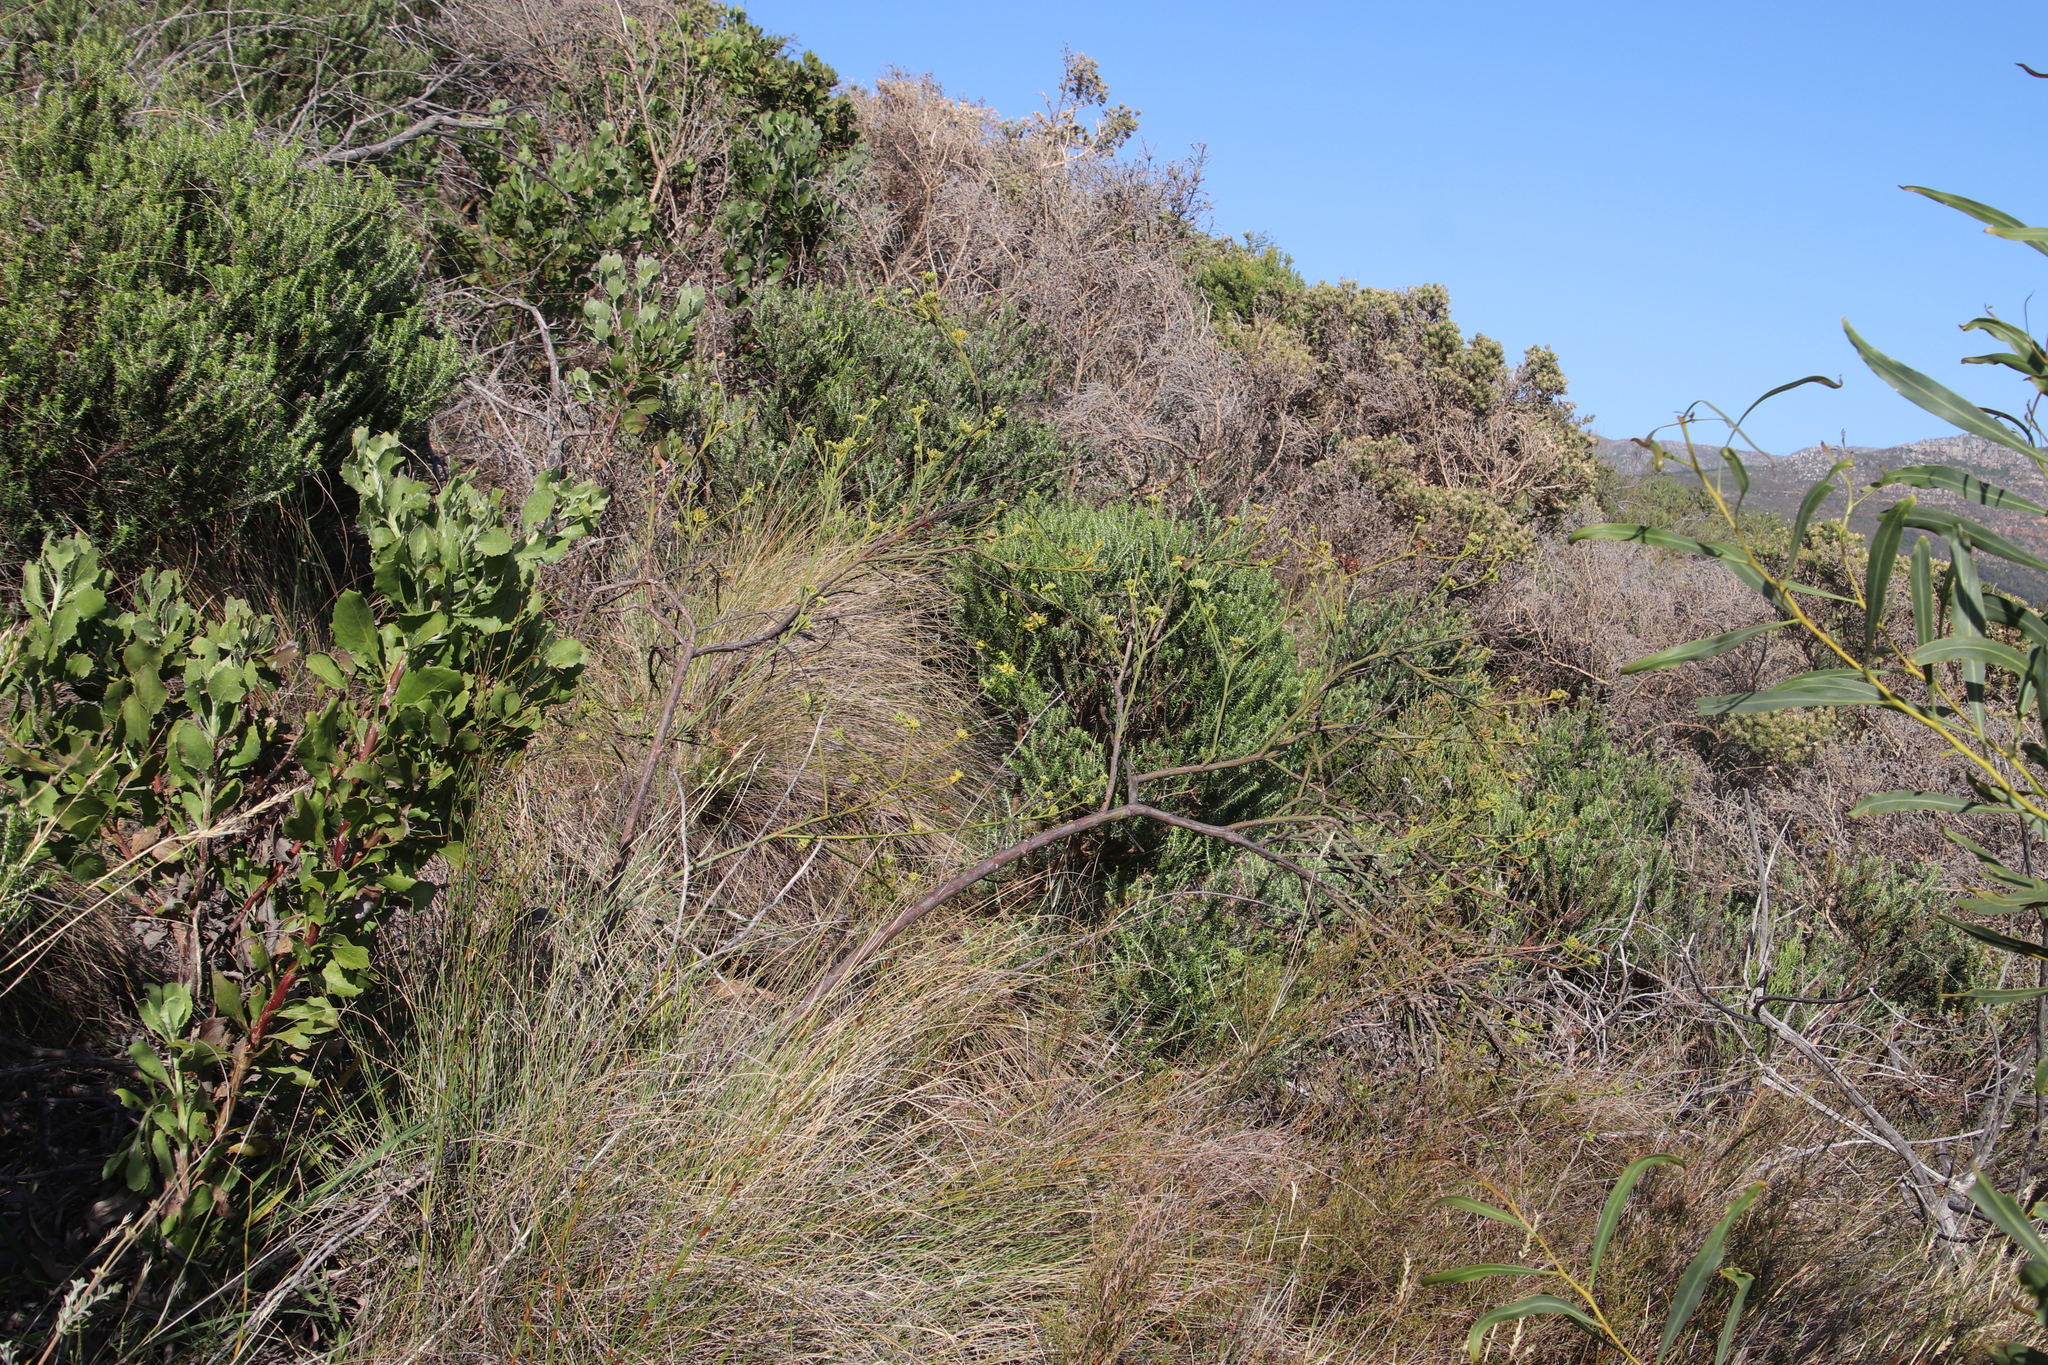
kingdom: Plantae
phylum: Tracheophyta
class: Magnoliopsida
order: Santalales
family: Thesiaceae
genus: Thesium
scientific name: Thesium strictum
